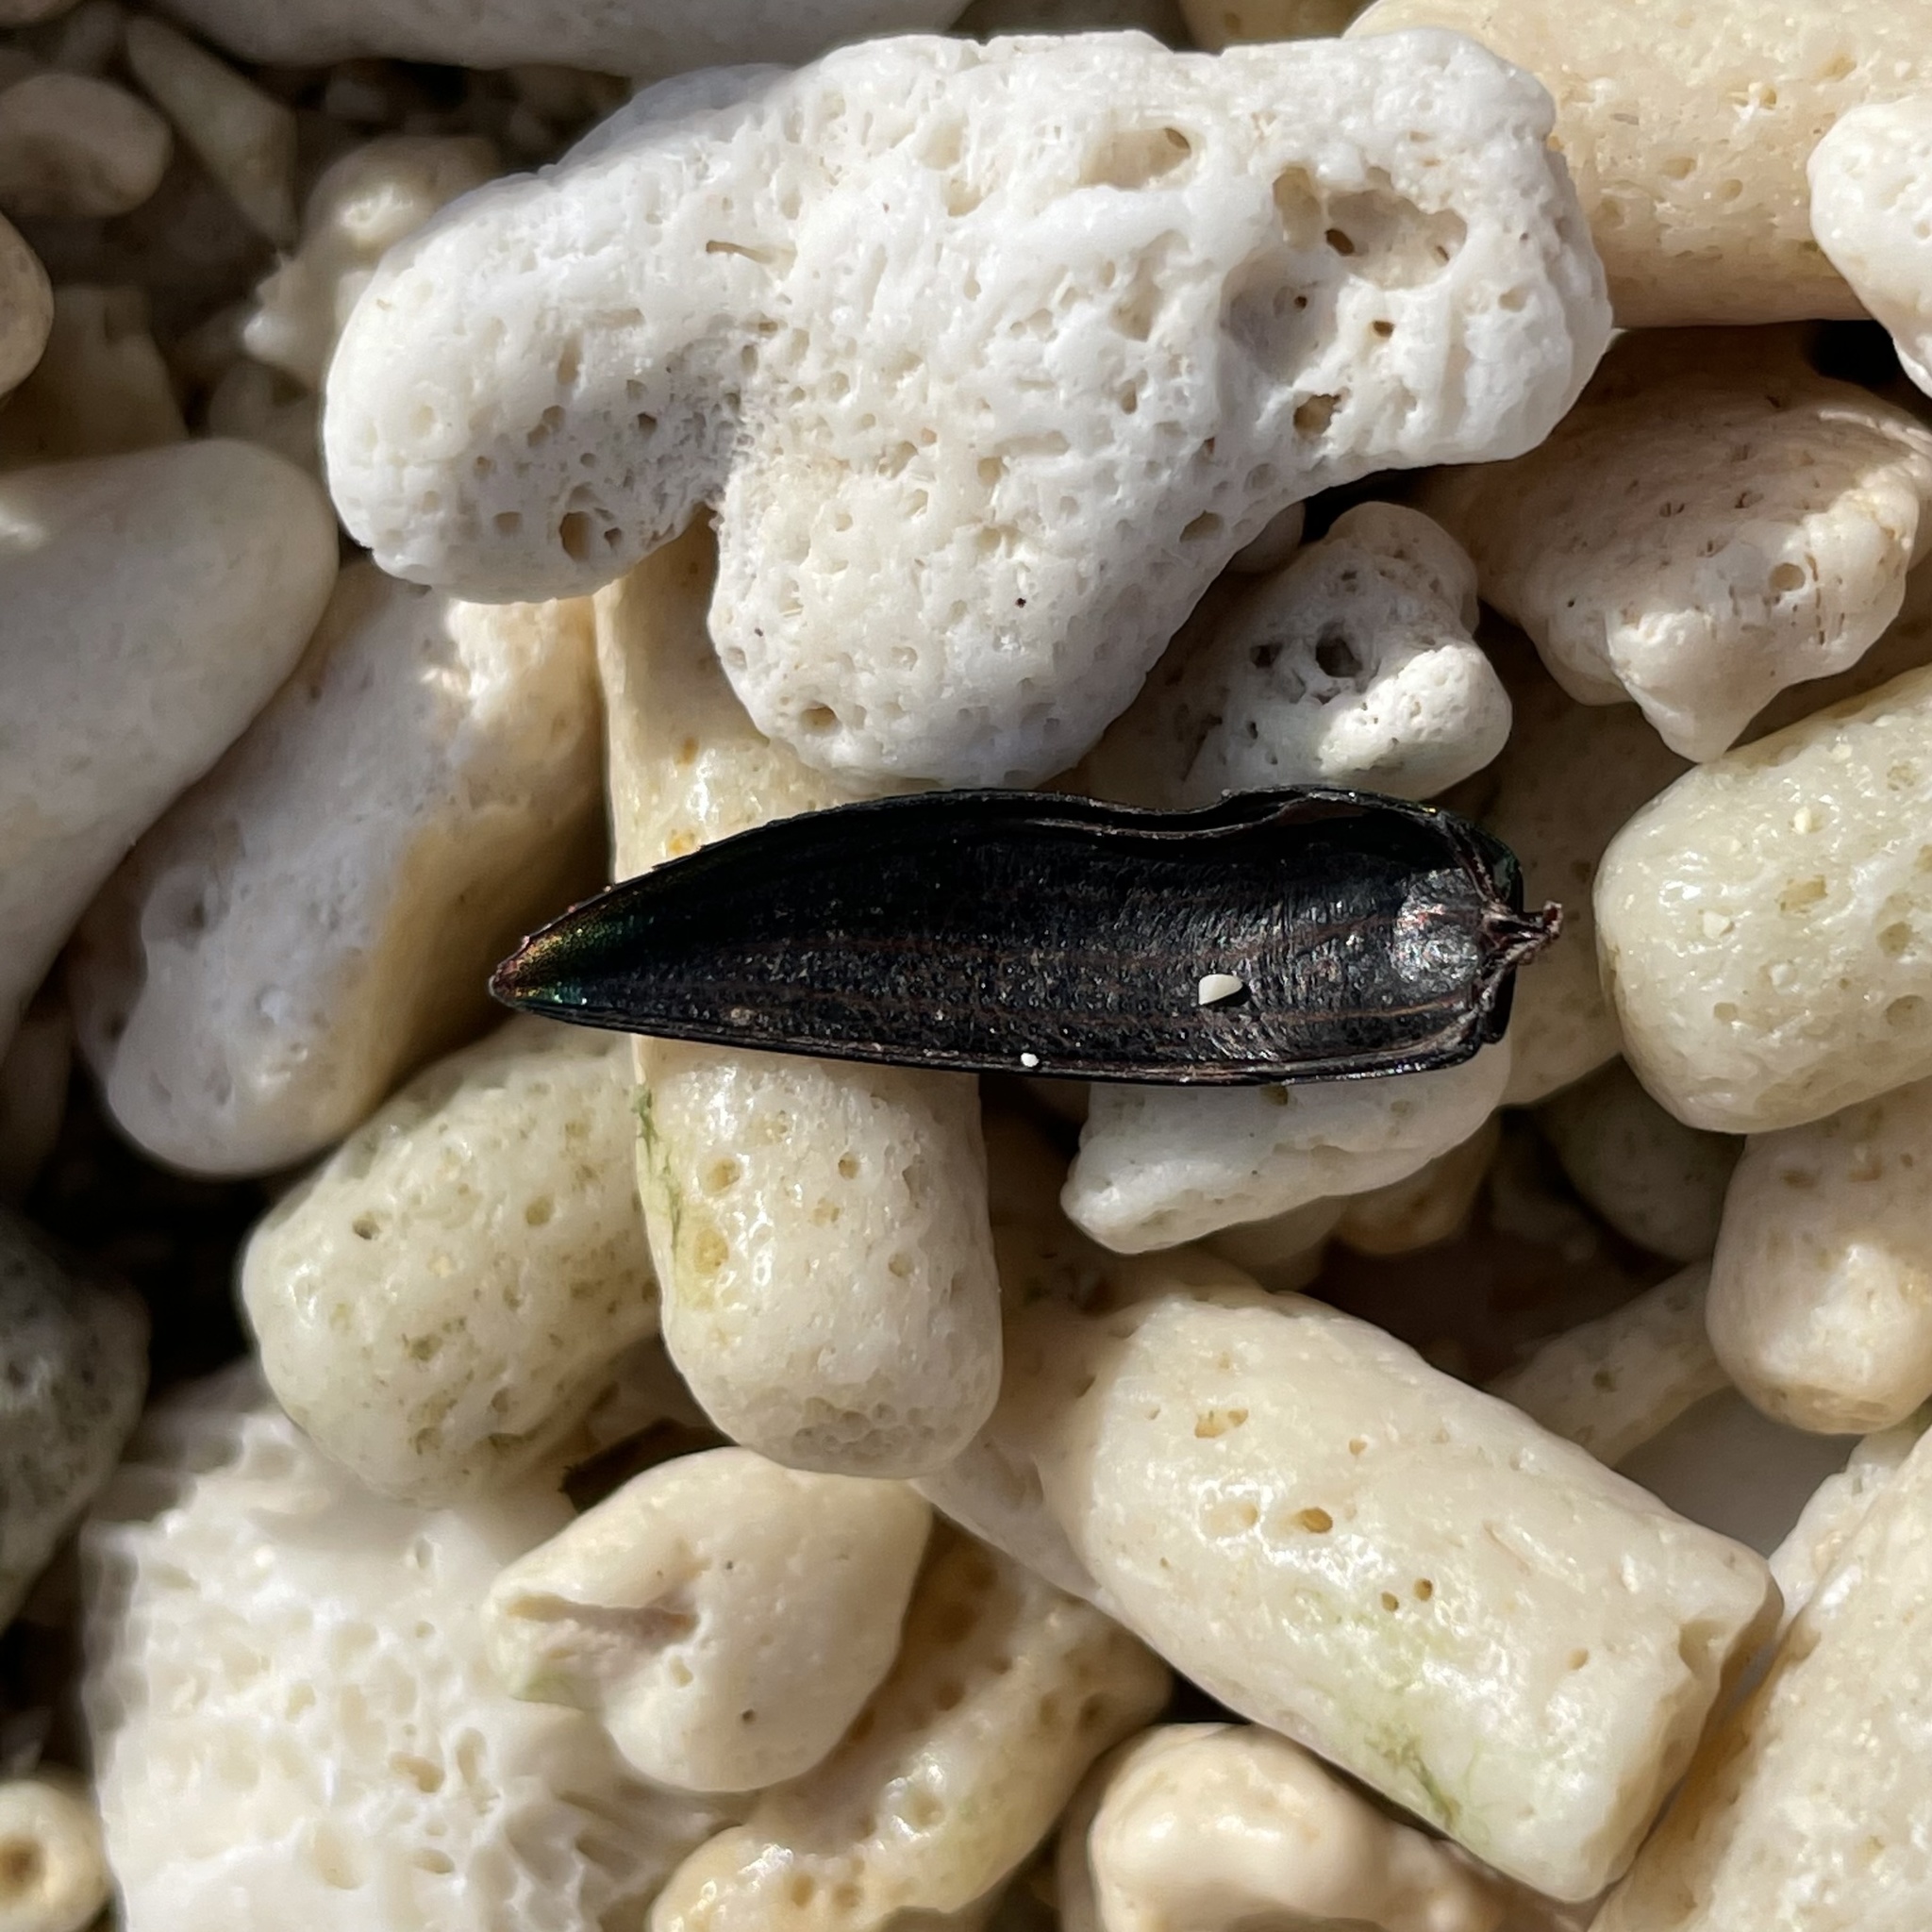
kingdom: Animalia
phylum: Arthropoda
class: Insecta
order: Coleoptera
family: Buprestidae
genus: Chrysodema
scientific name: Chrysodema dalmanni
